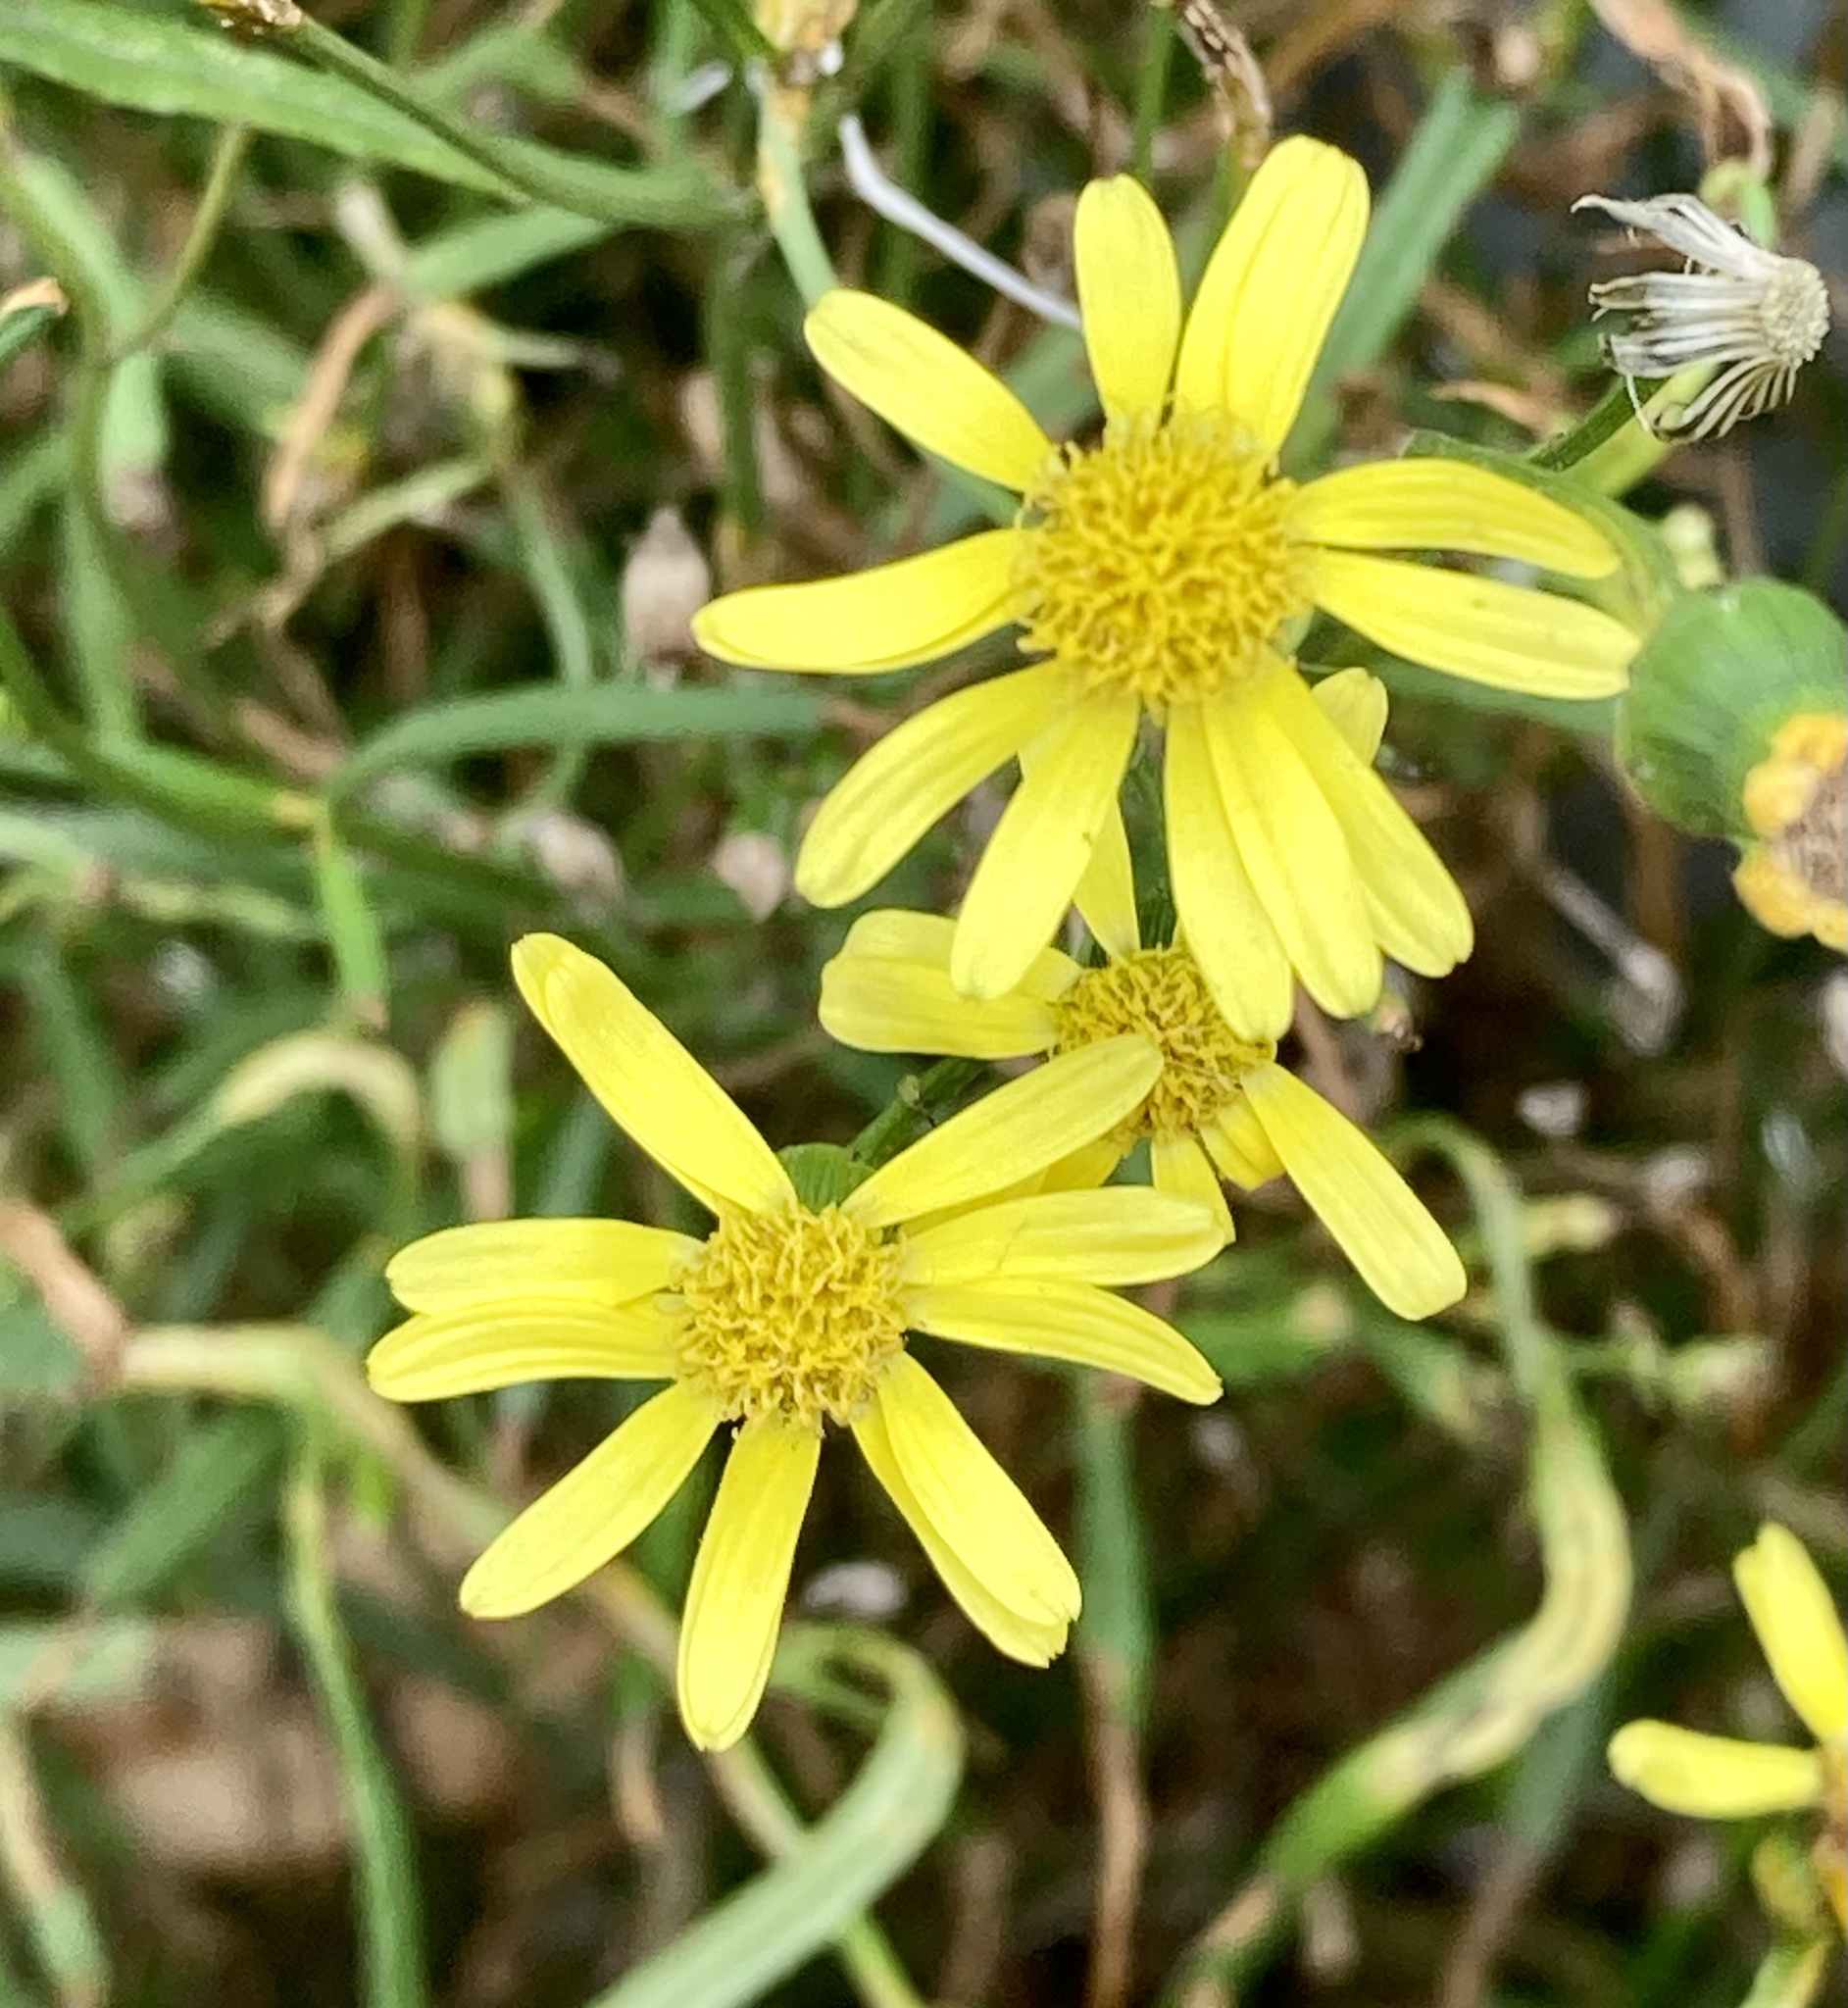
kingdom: Plantae
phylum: Tracheophyta
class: Magnoliopsida
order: Asterales
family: Asteraceae
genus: Senecio
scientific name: Senecio madagascariensis
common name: Madagascar ragwort
